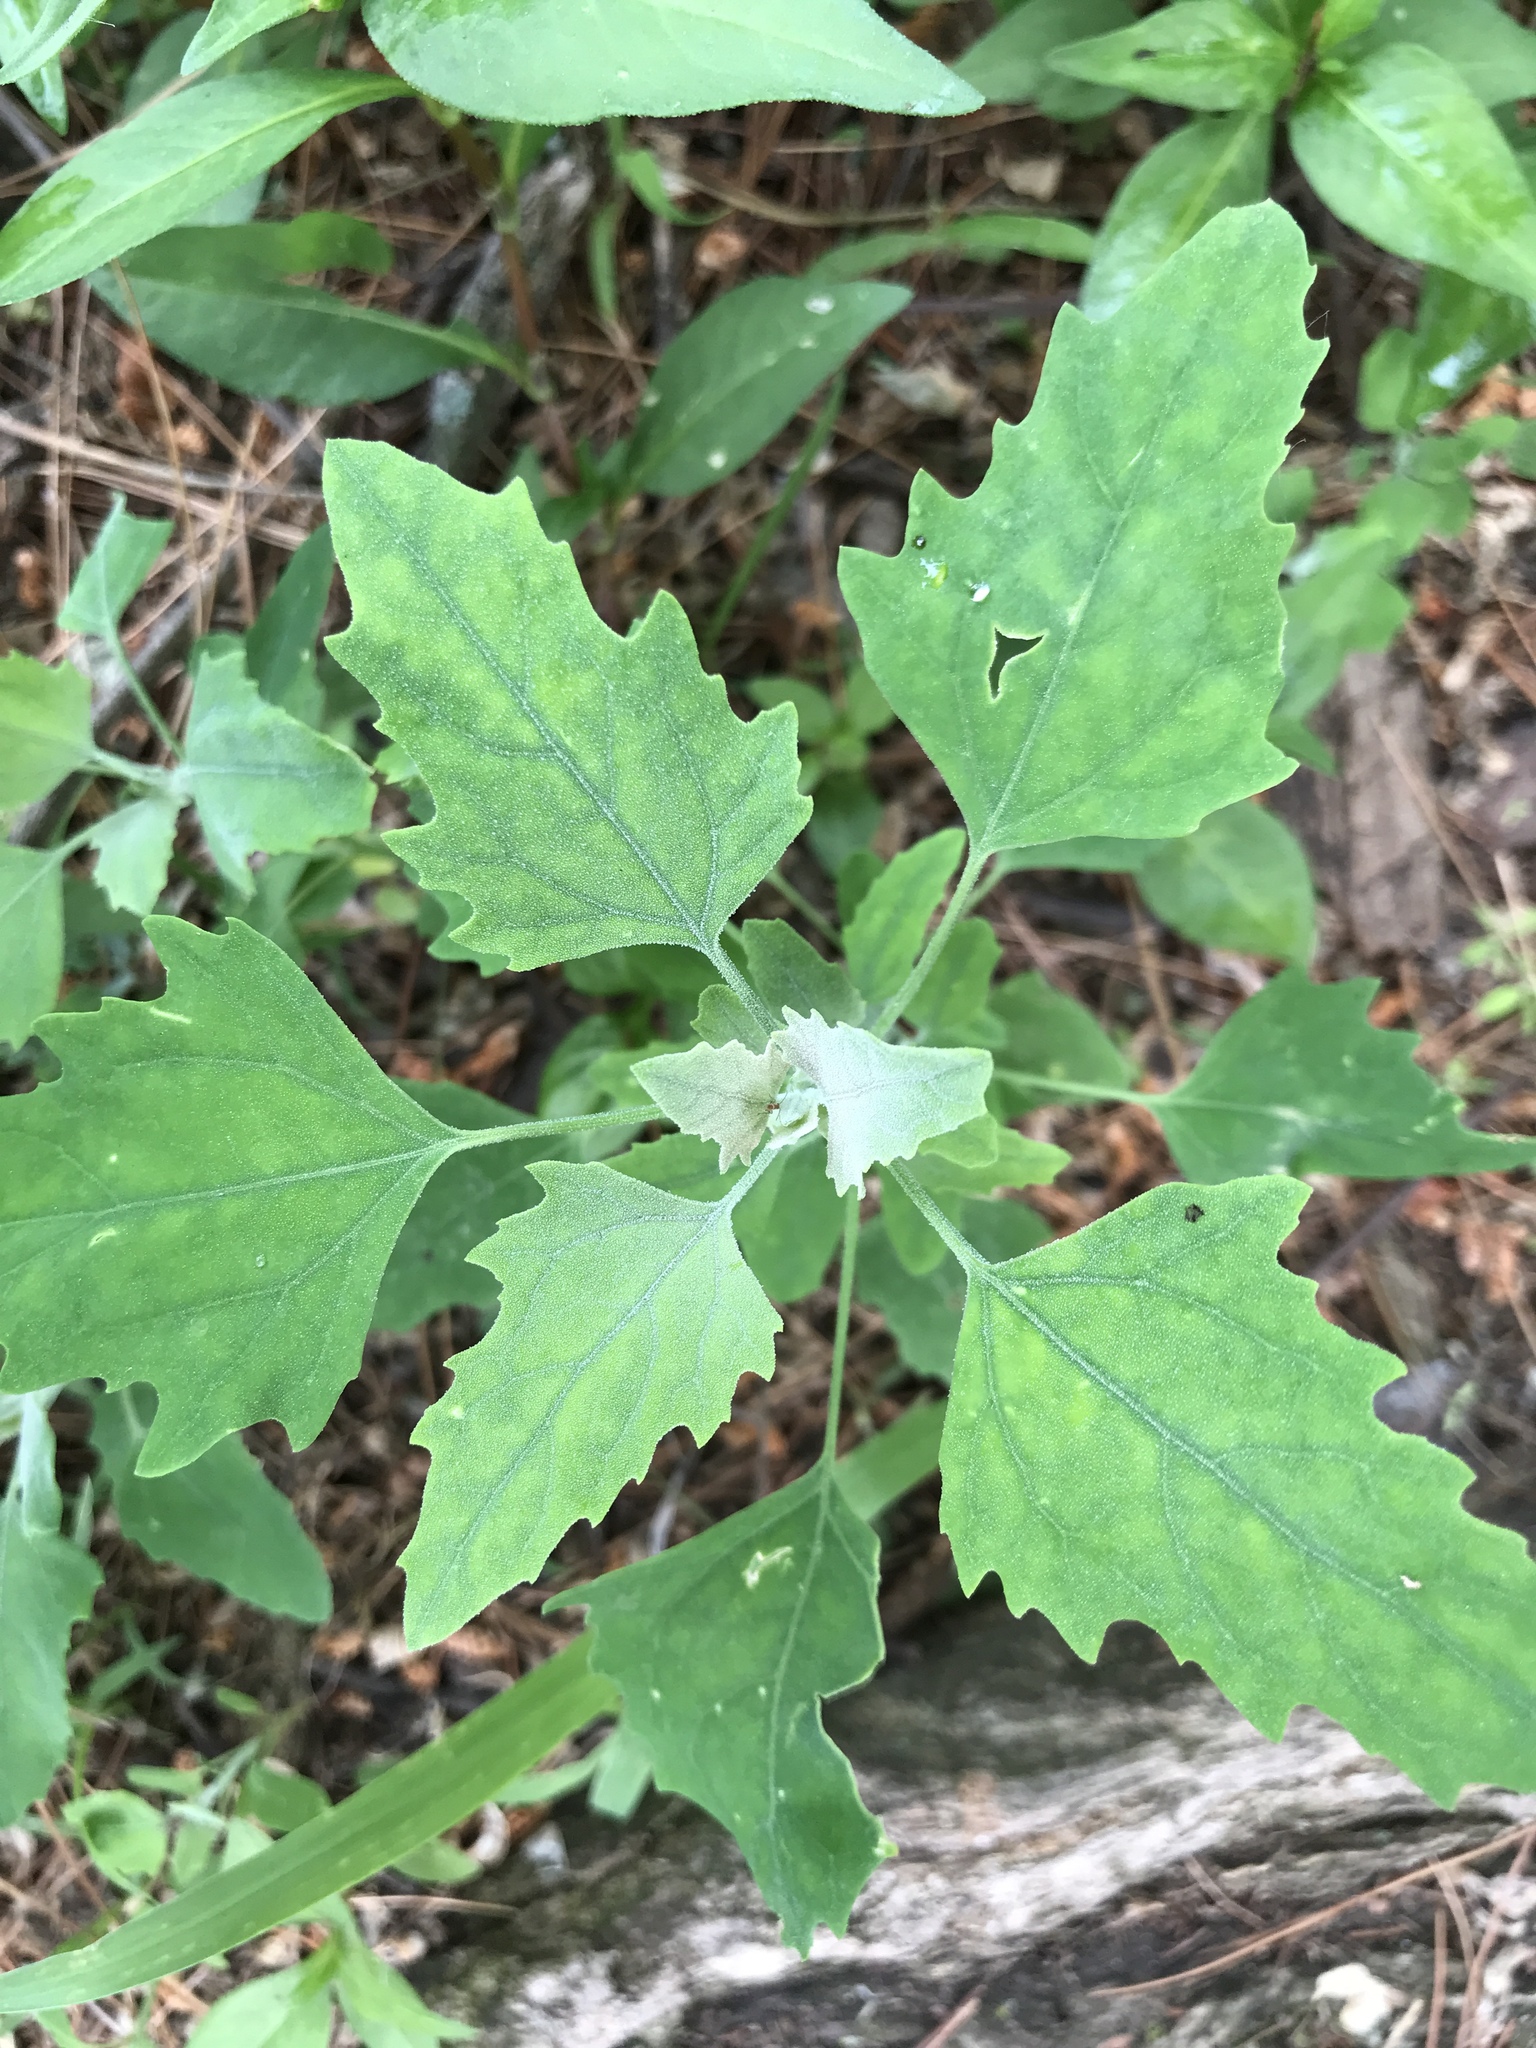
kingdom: Plantae
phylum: Tracheophyta
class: Magnoliopsida
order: Caryophyllales
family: Amaranthaceae
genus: Chenopodium
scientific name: Chenopodium album
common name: Fat-hen
